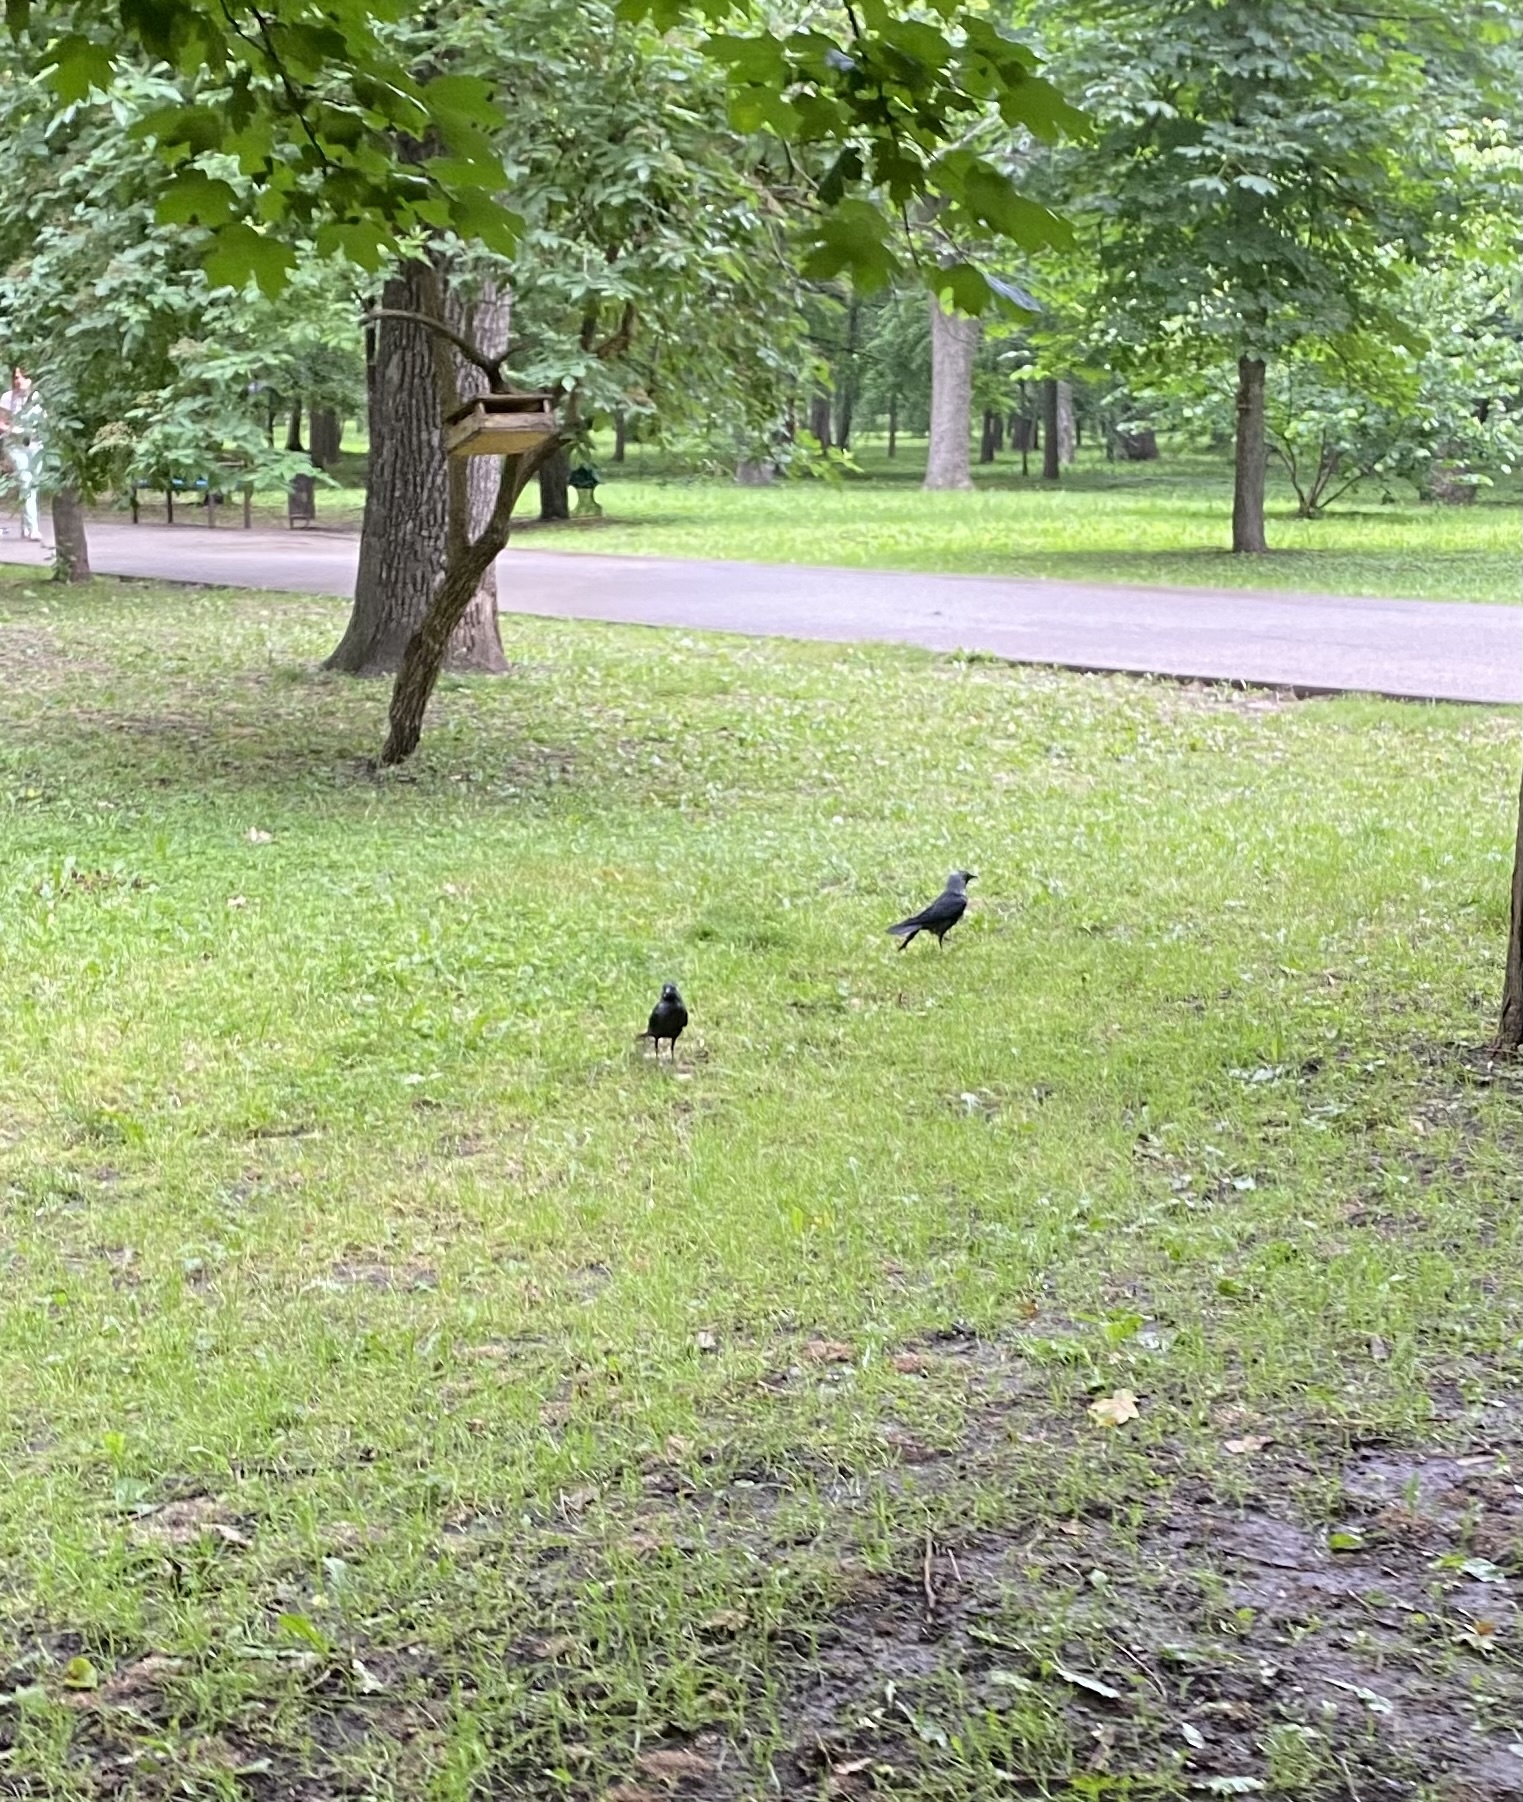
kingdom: Animalia
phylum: Chordata
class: Aves
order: Passeriformes
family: Corvidae
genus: Coloeus
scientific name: Coloeus monedula
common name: Western jackdaw
